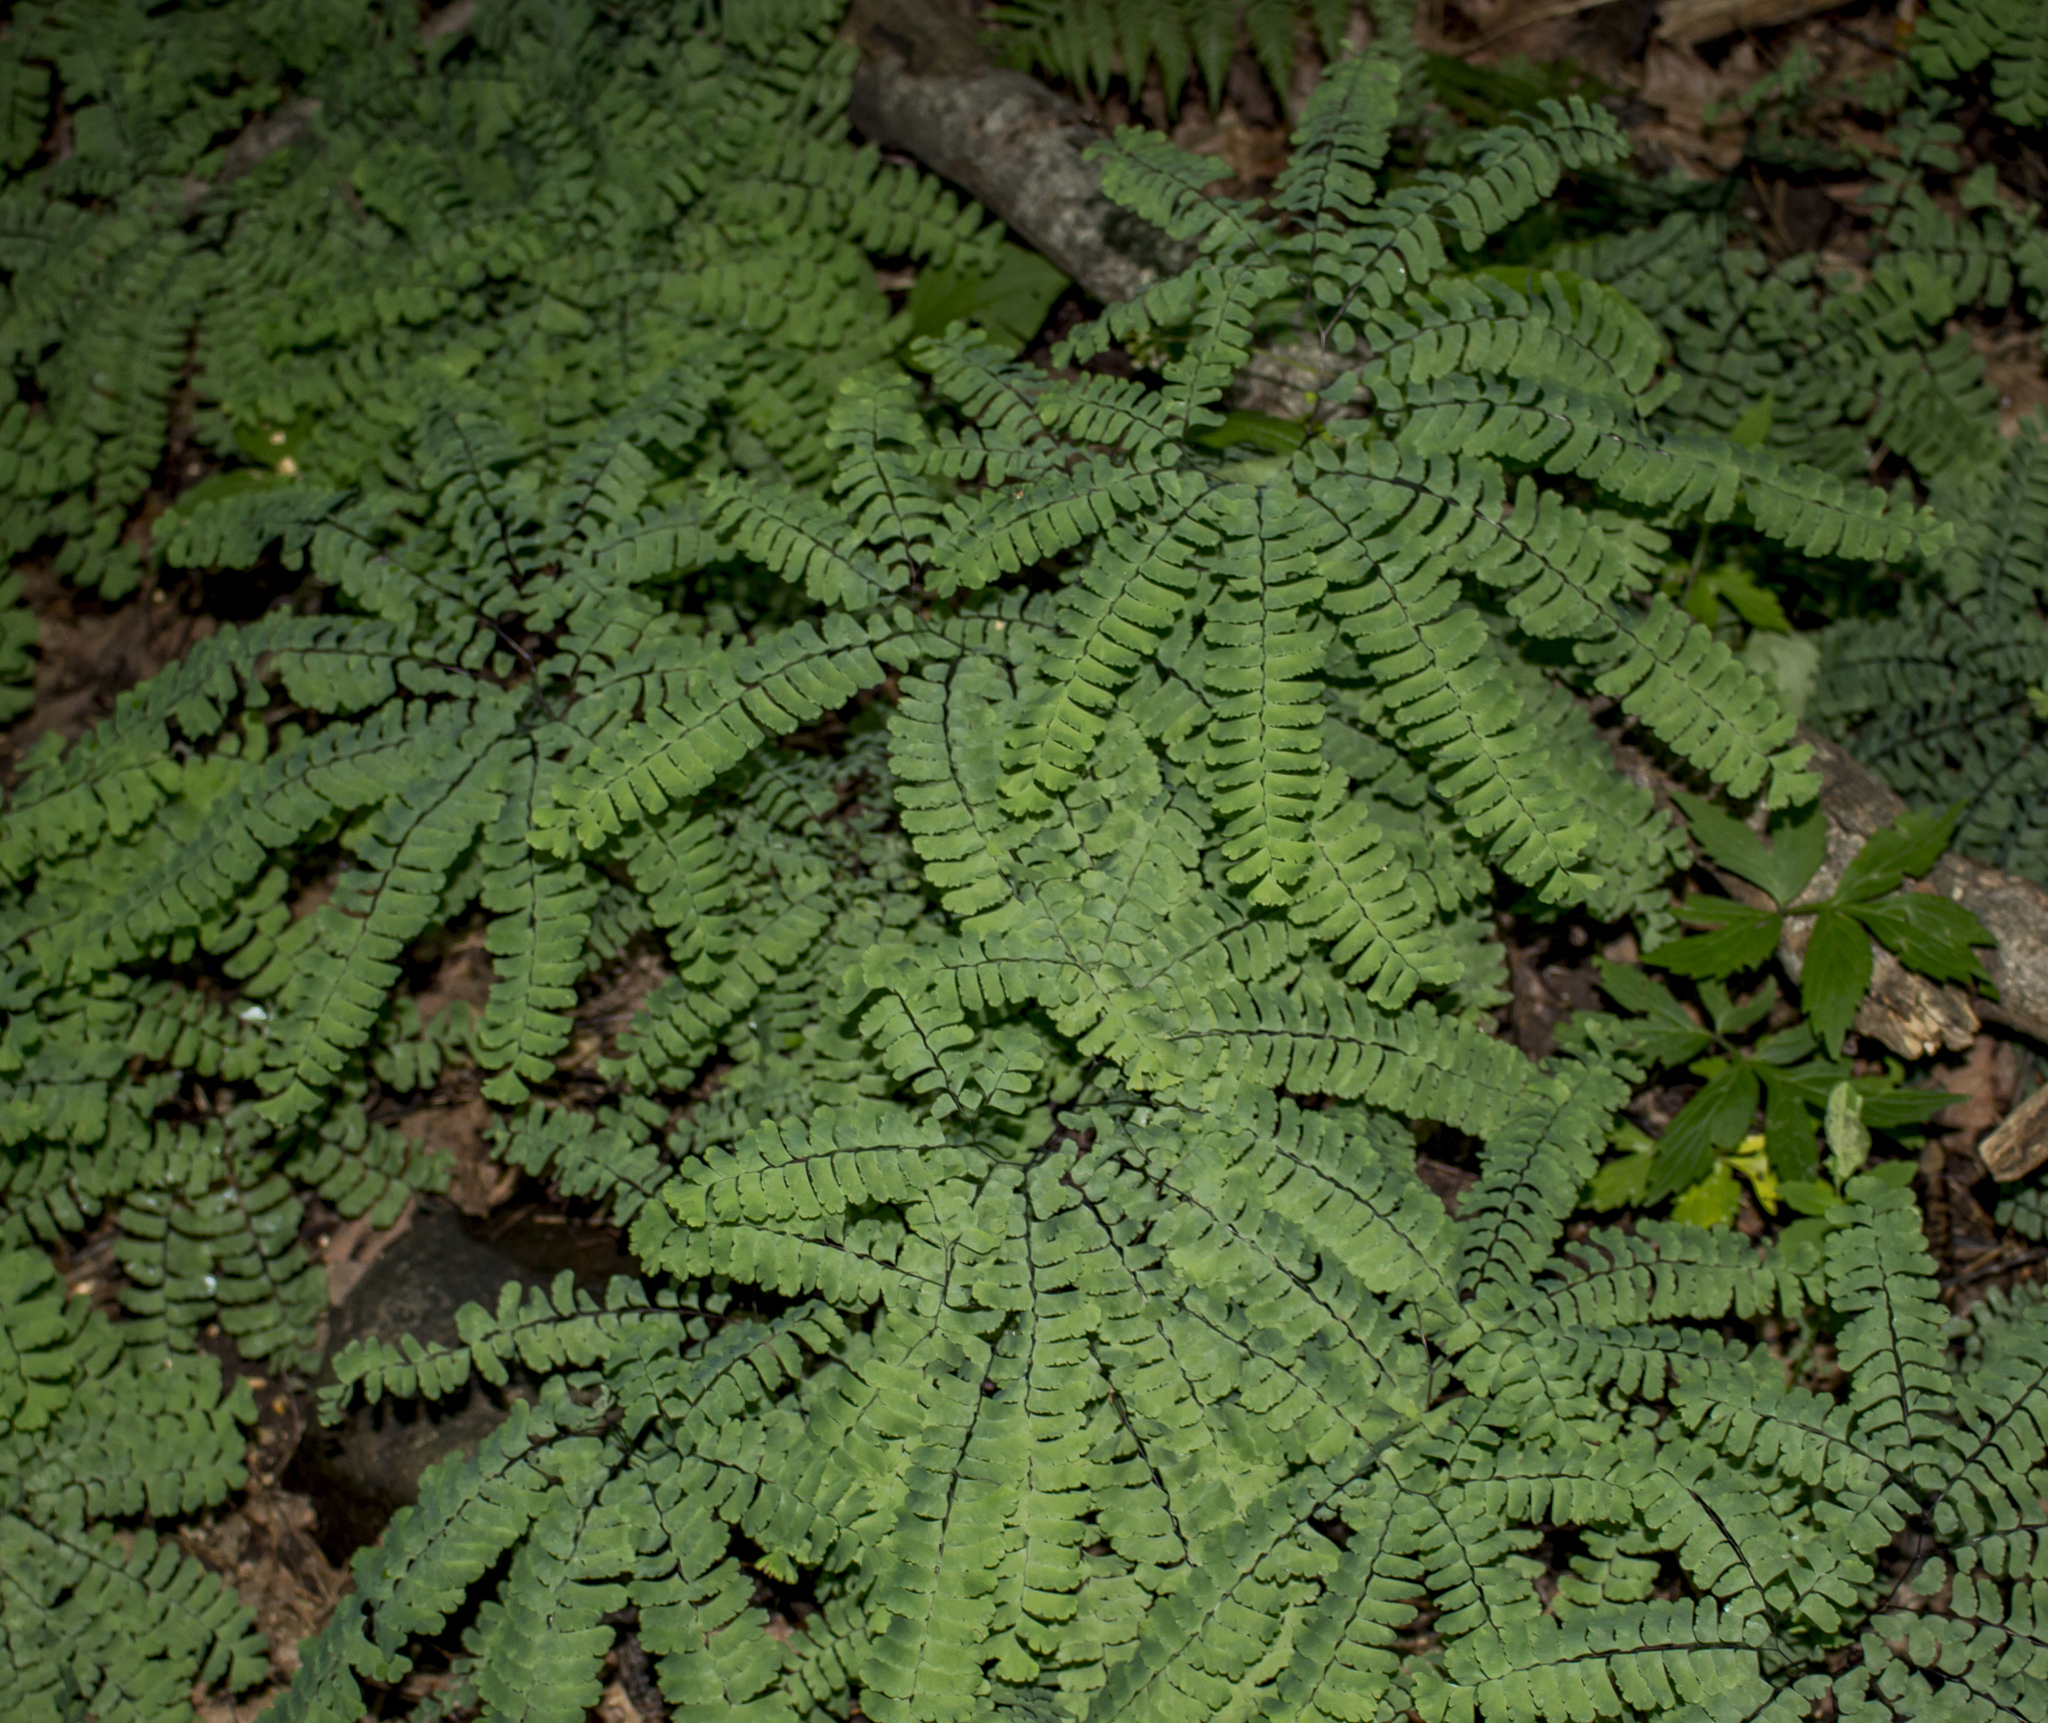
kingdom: Plantae
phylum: Tracheophyta
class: Polypodiopsida
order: Polypodiales
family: Pteridaceae
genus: Adiantum
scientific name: Adiantum pedatum
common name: Five-finger fern
